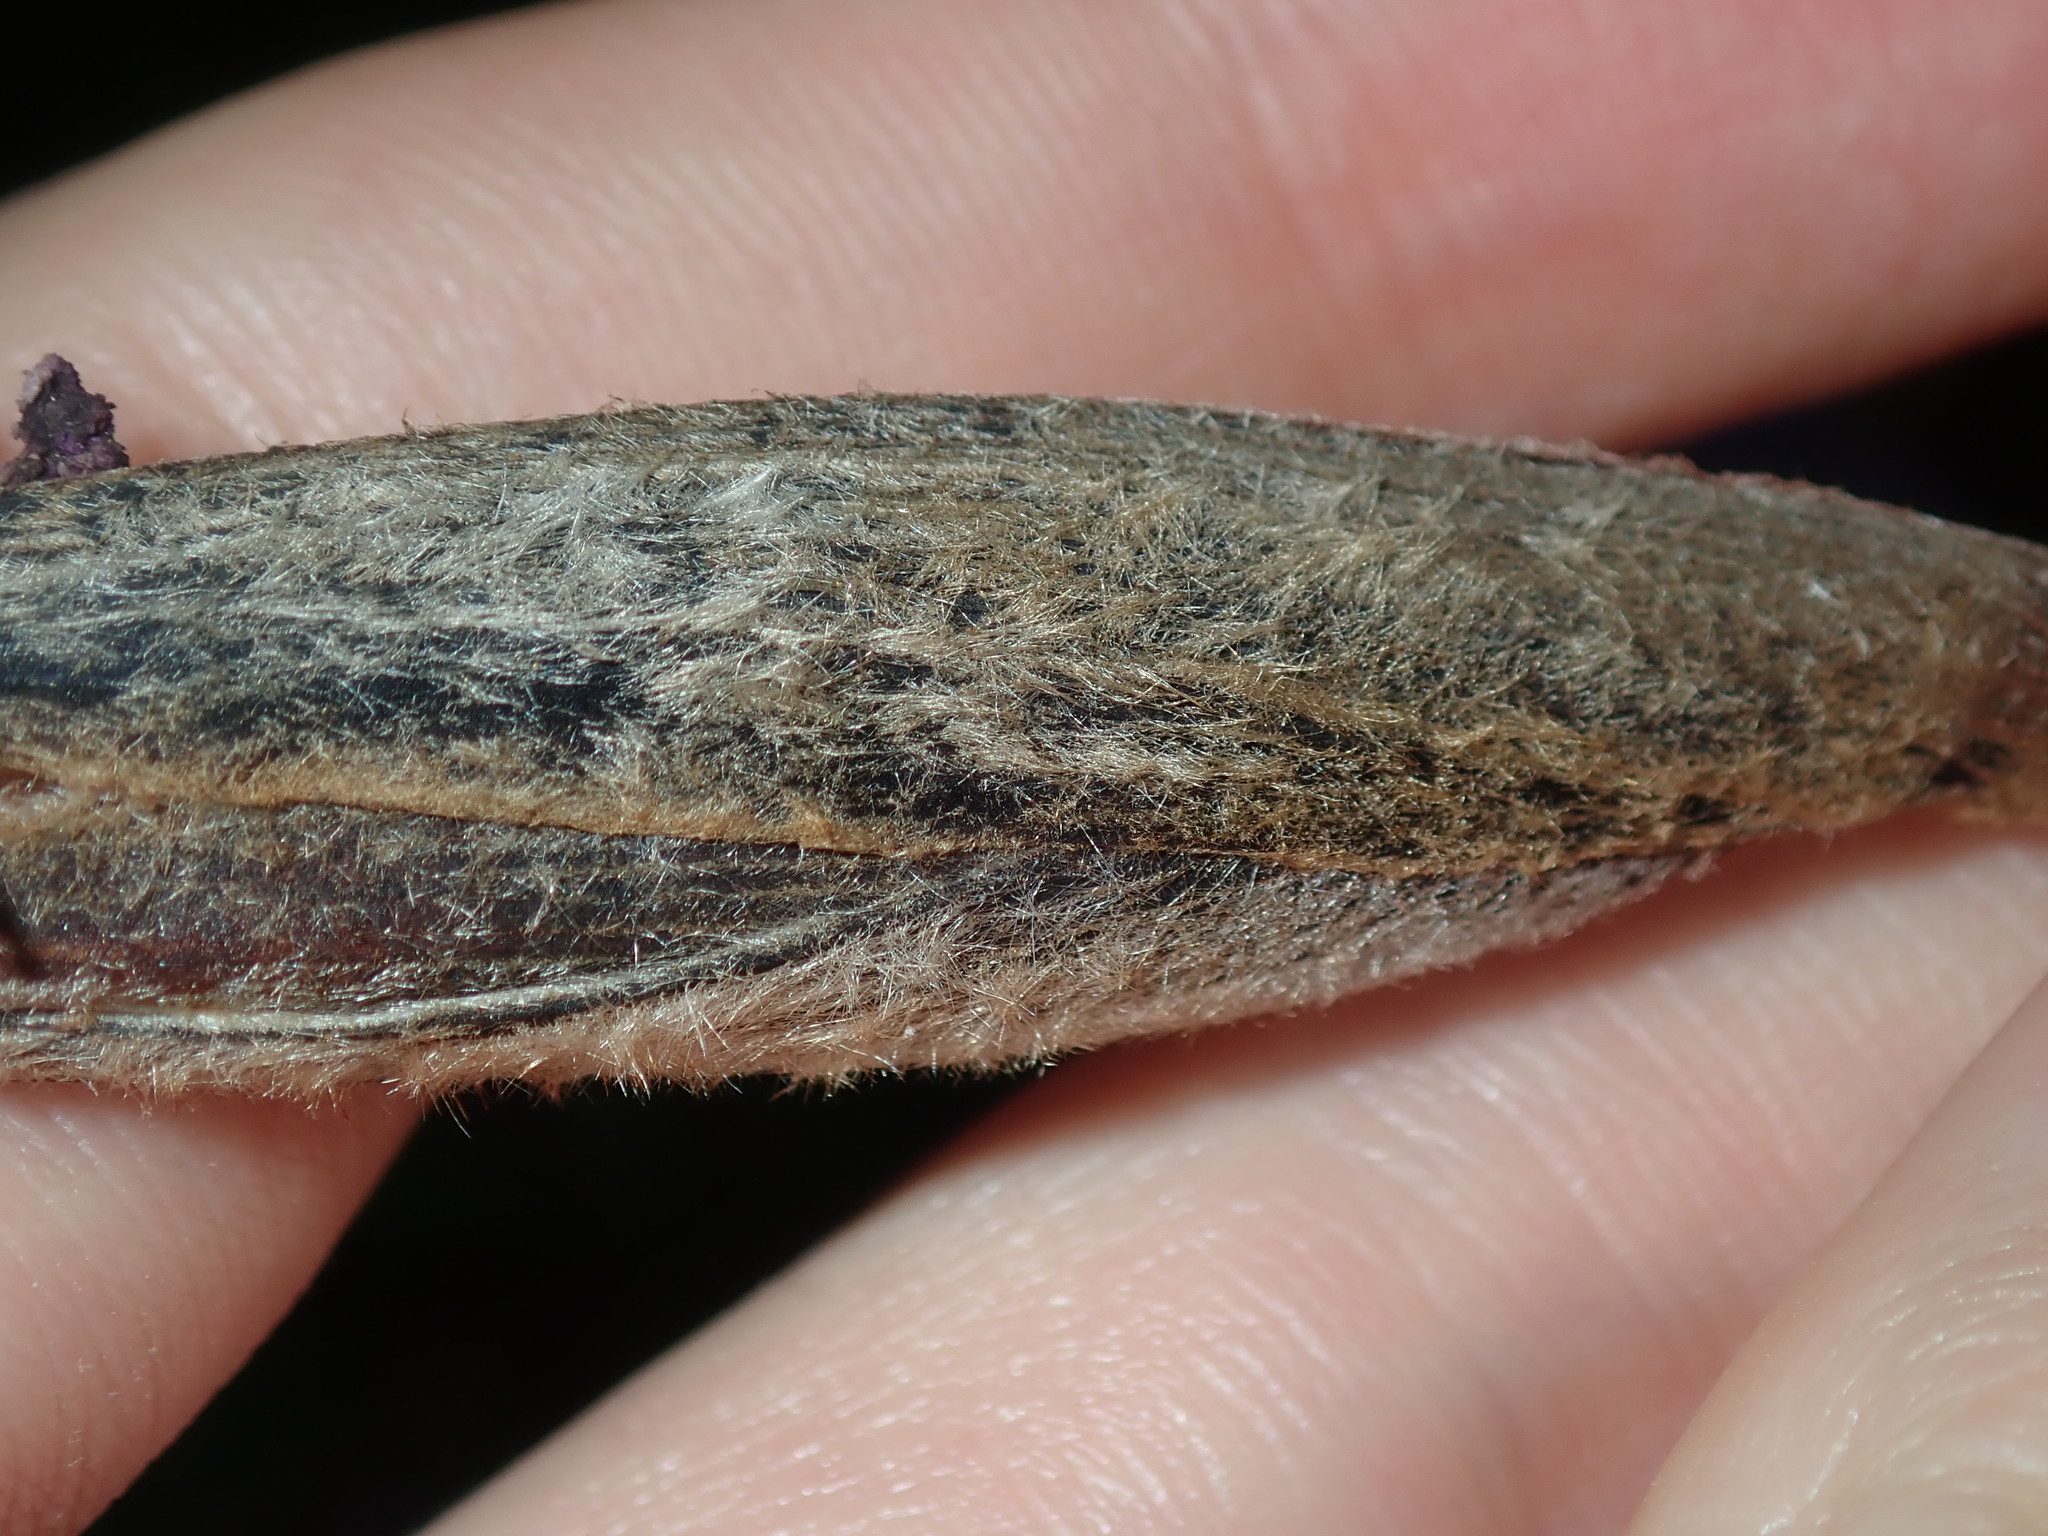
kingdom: Plantae
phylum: Tracheophyta
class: Liliopsida
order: Asparagales
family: Iridaceae
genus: Patersonia
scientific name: Patersonia sericea
